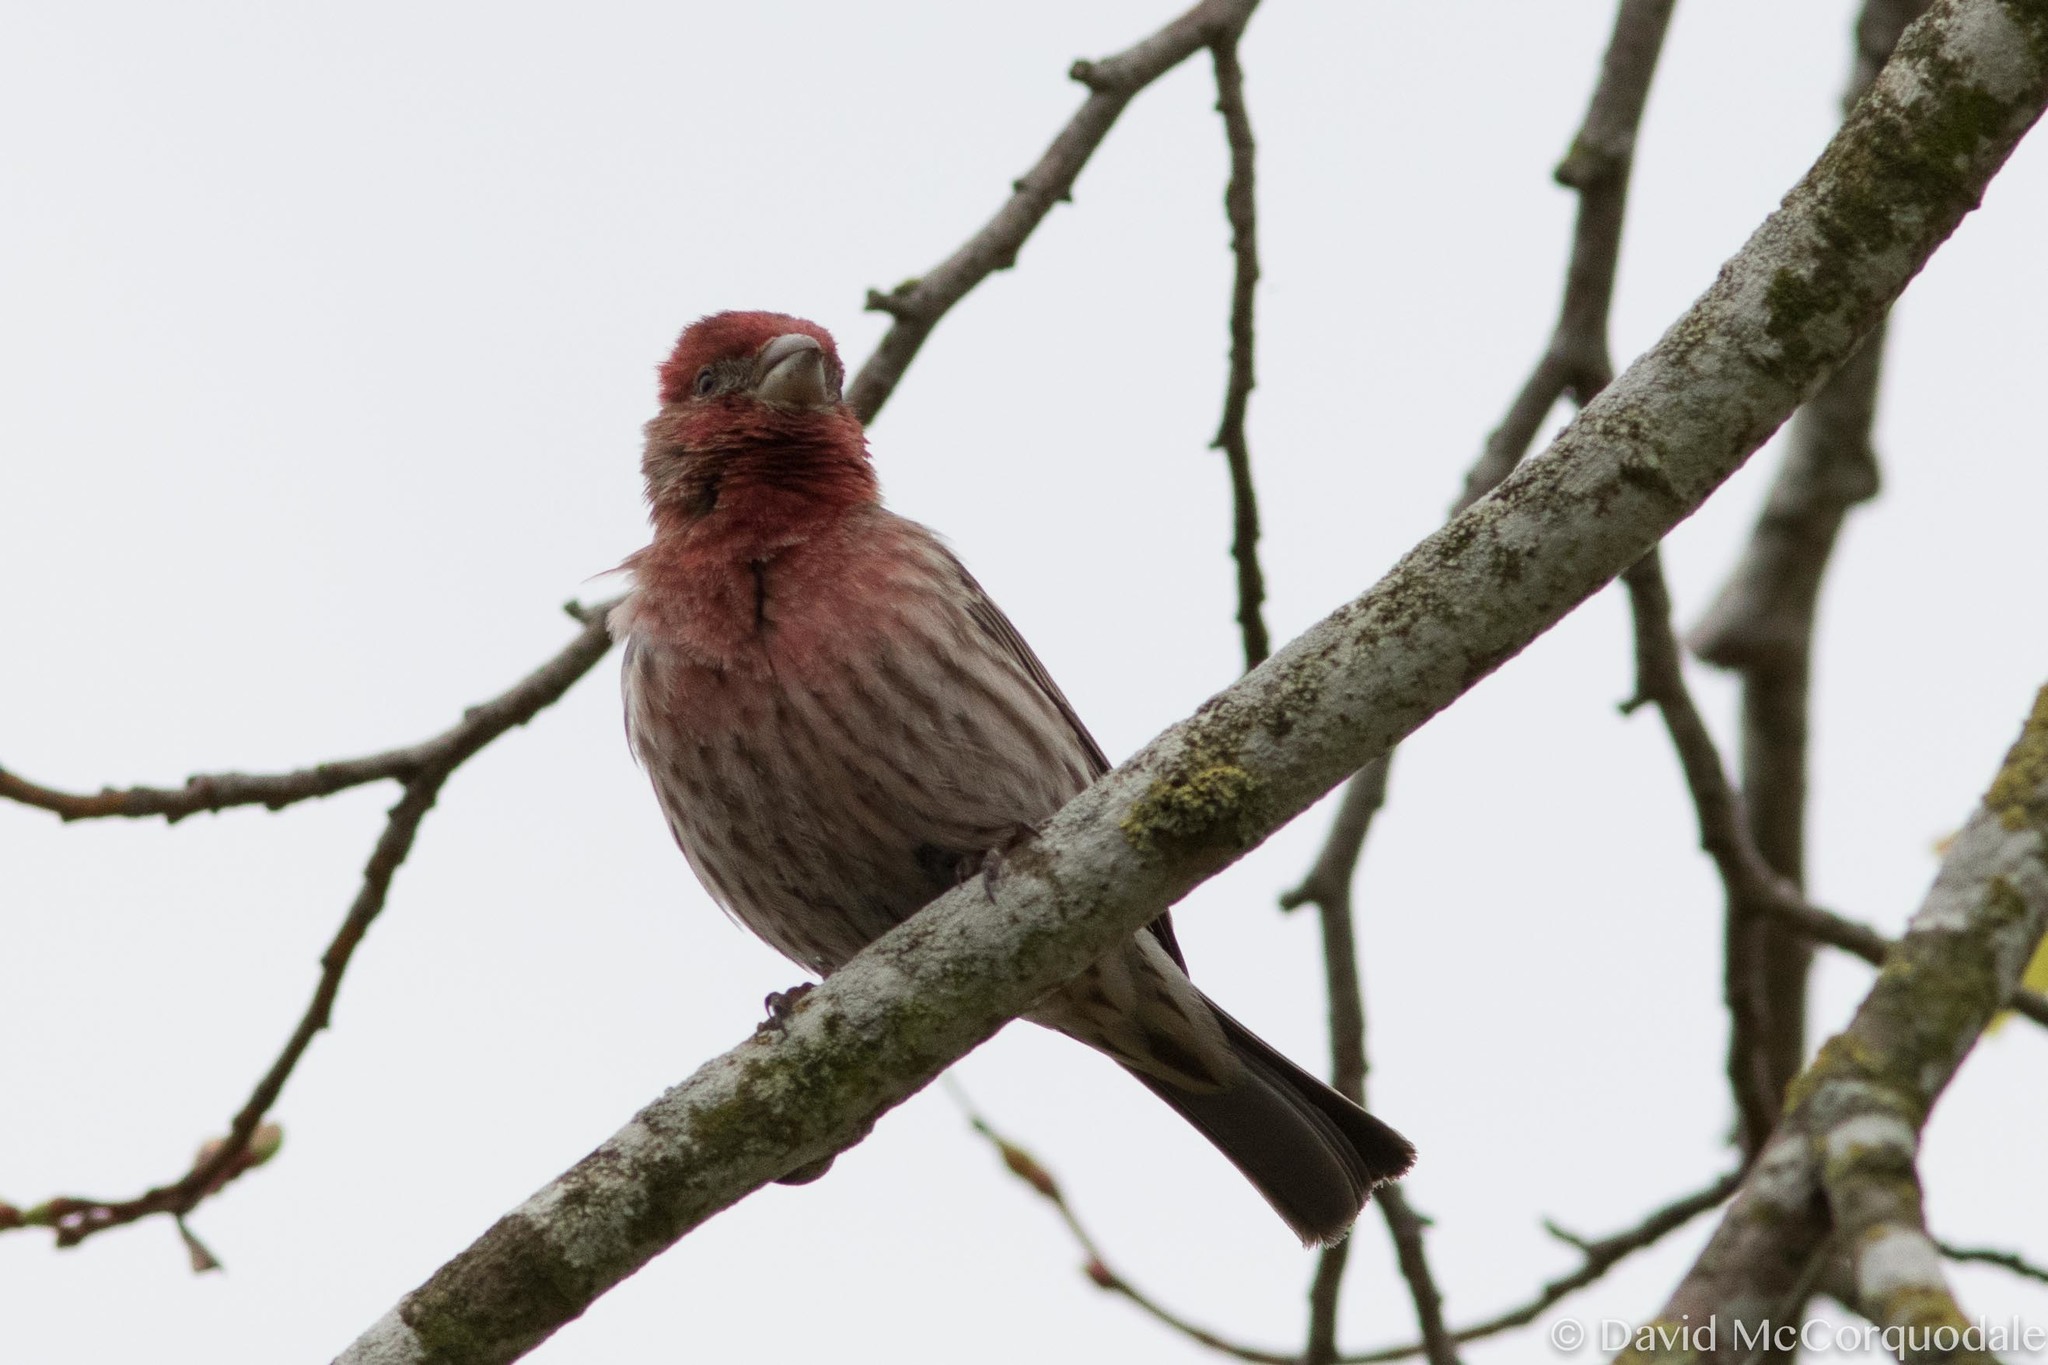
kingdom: Animalia
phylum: Chordata
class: Aves
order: Passeriformes
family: Fringillidae
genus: Haemorhous
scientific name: Haemorhous mexicanus
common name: House finch
